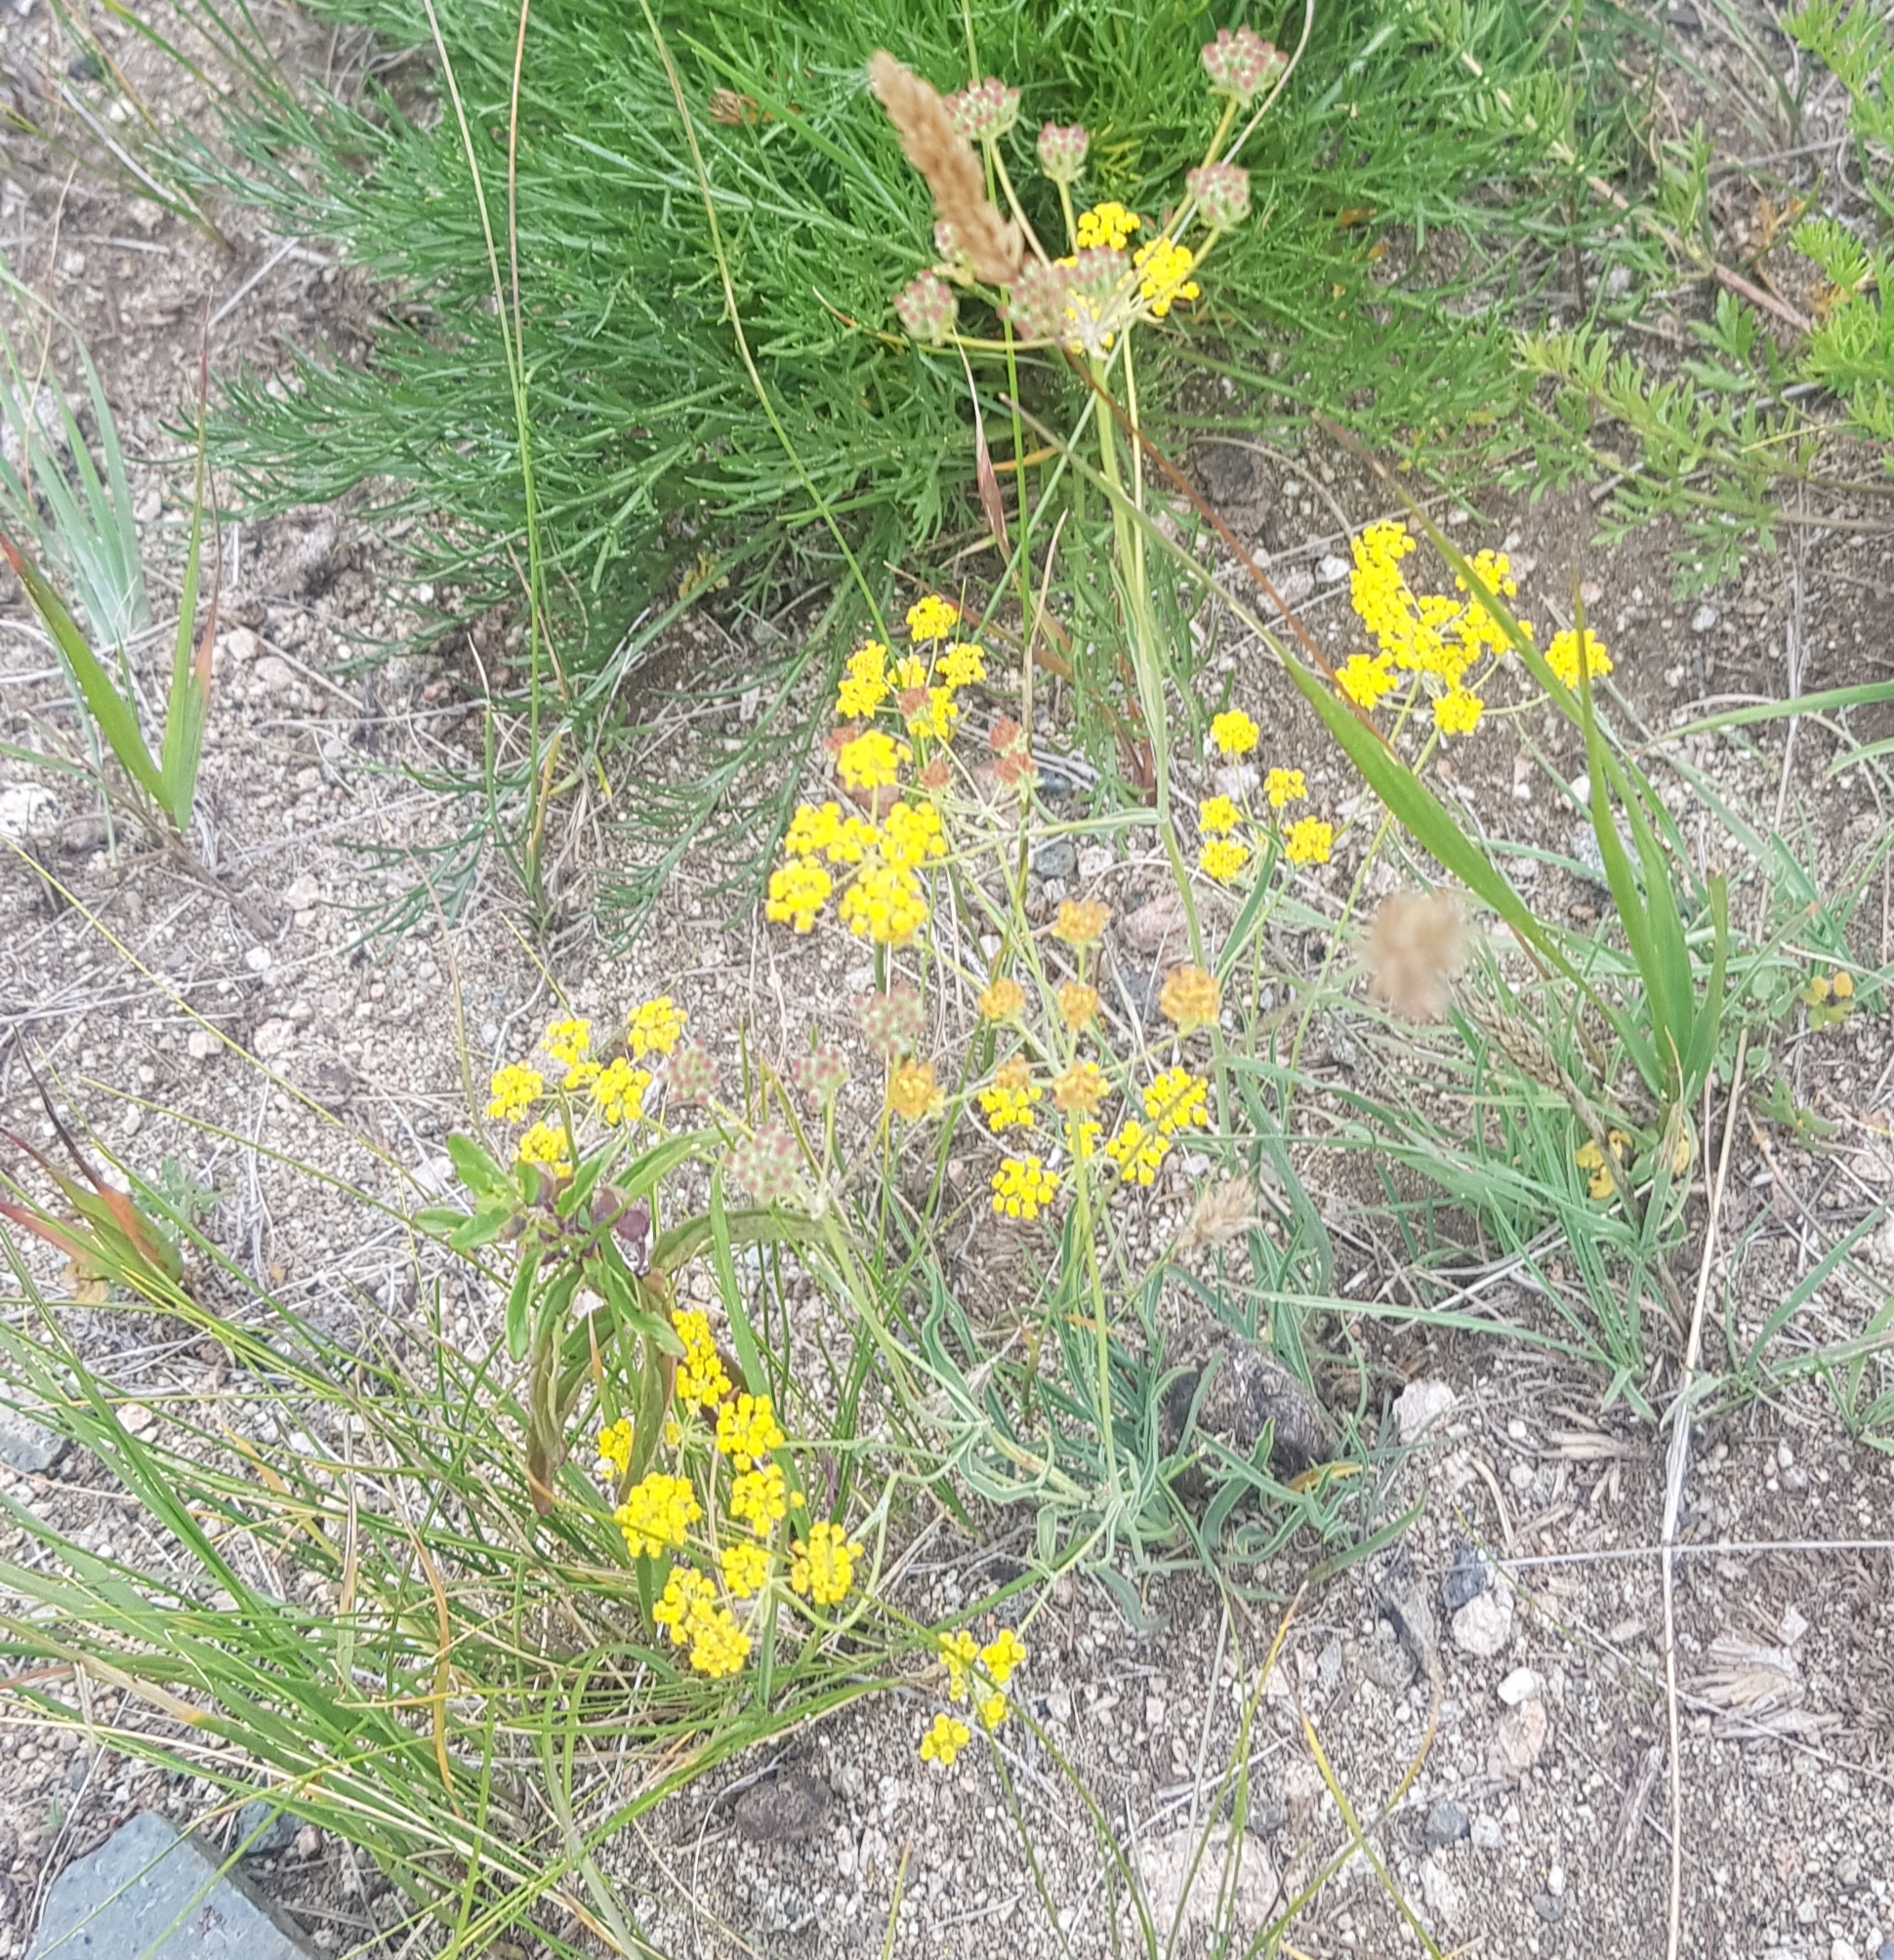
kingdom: Plantae
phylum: Tracheophyta
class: Magnoliopsida
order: Apiales
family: Apiaceae
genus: Bupleurum
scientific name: Bupleurum bicaule
